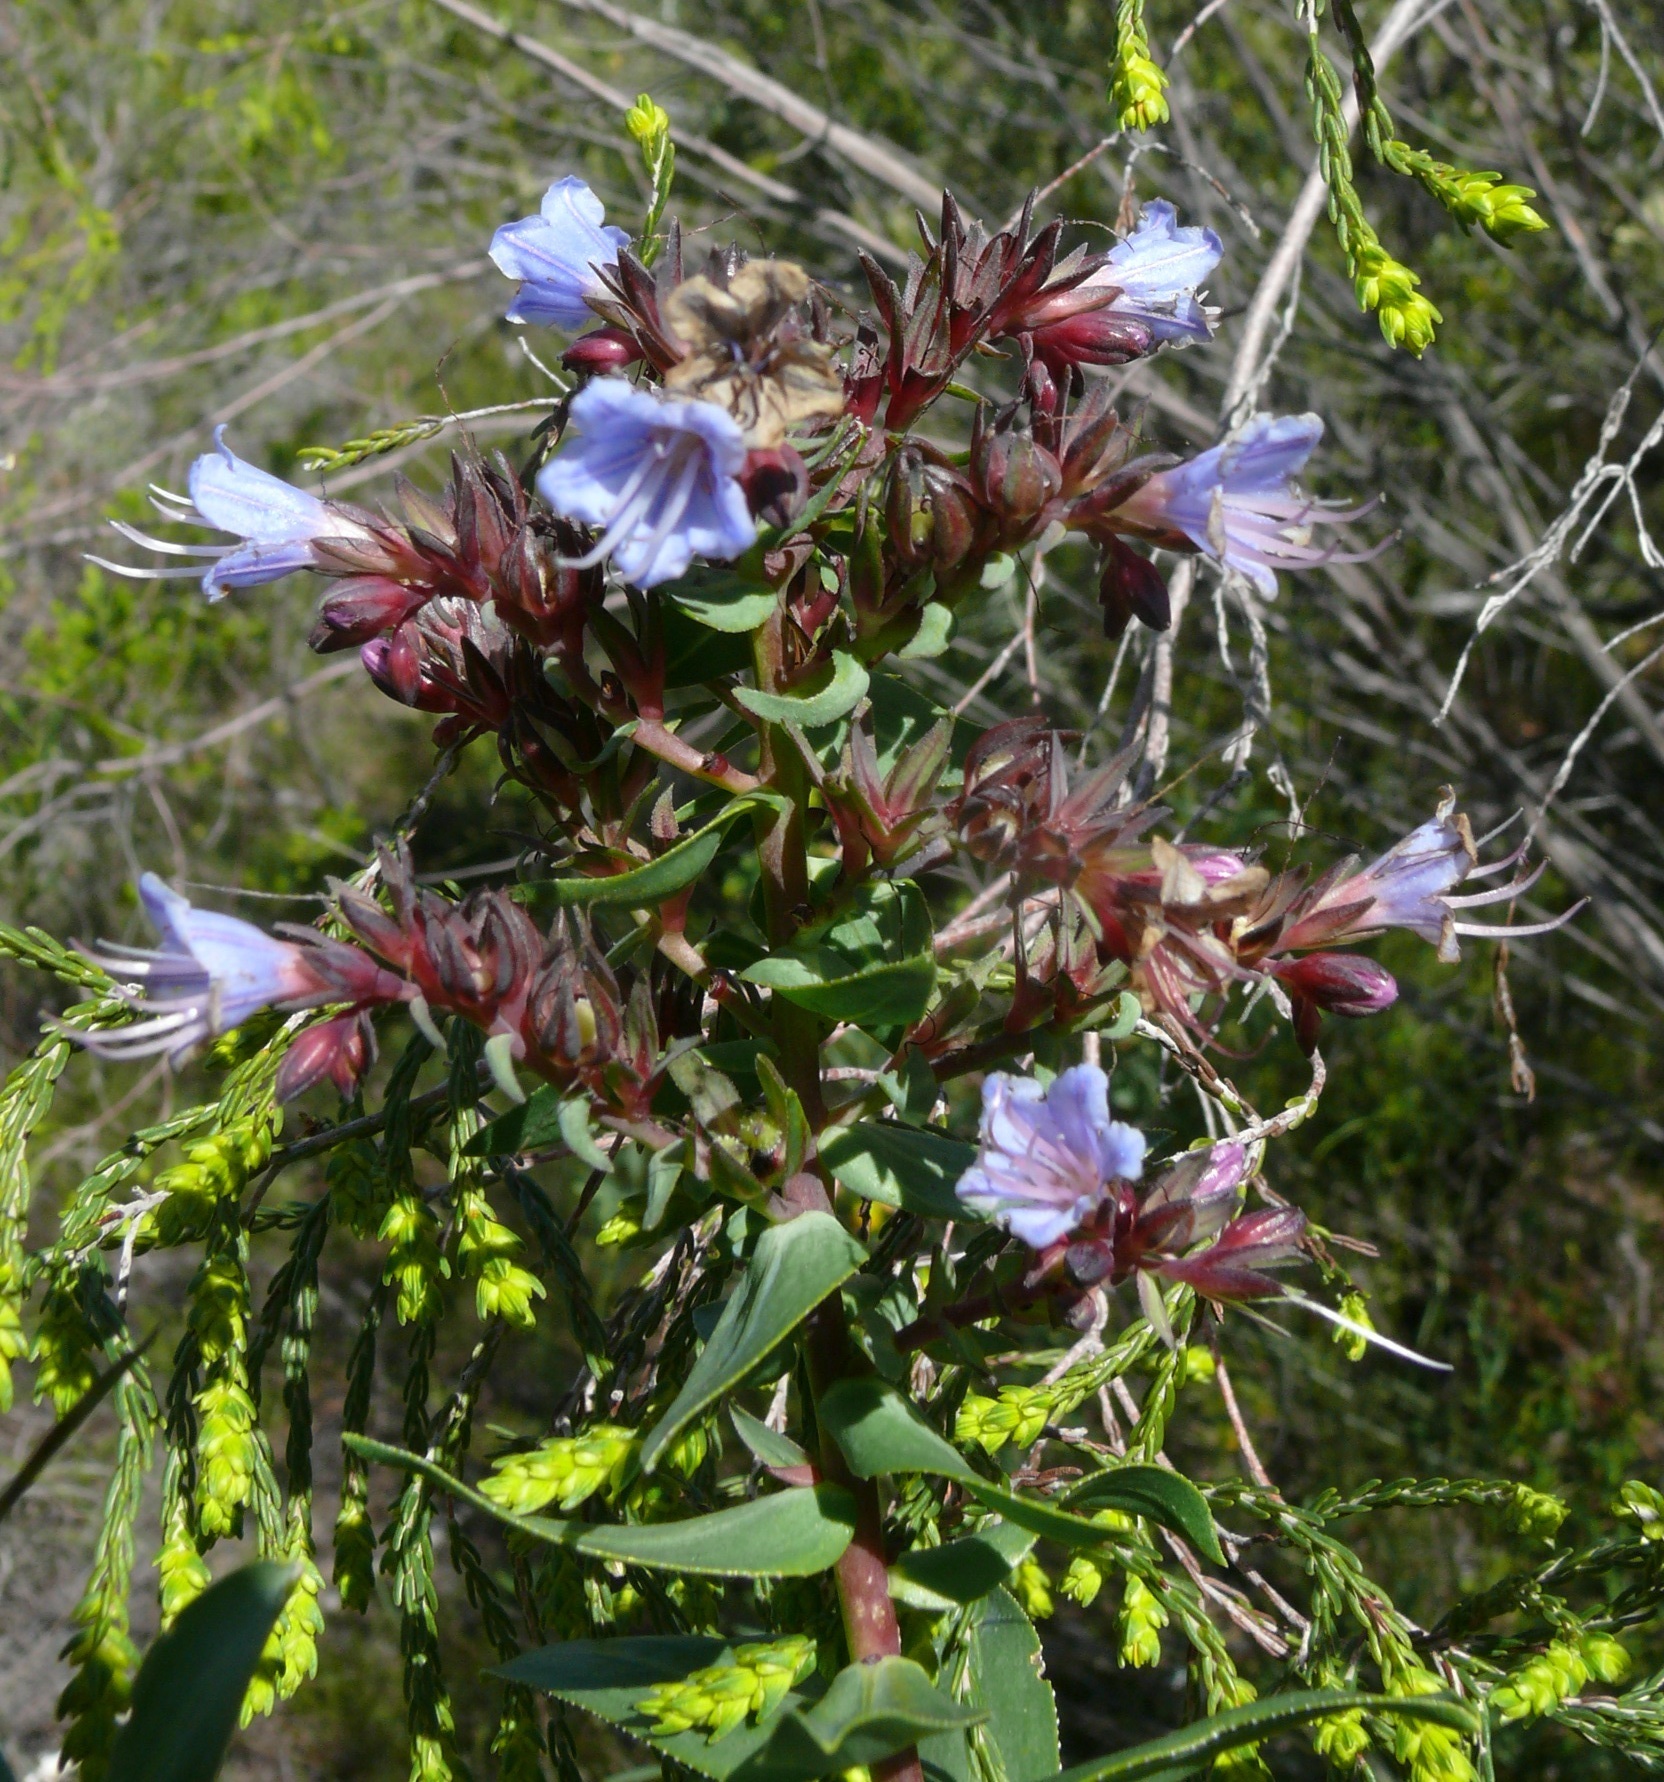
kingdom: Plantae
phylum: Tracheophyta
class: Magnoliopsida
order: Boraginales
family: Boraginaceae
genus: Lobostemon
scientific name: Lobostemon laevigatus
